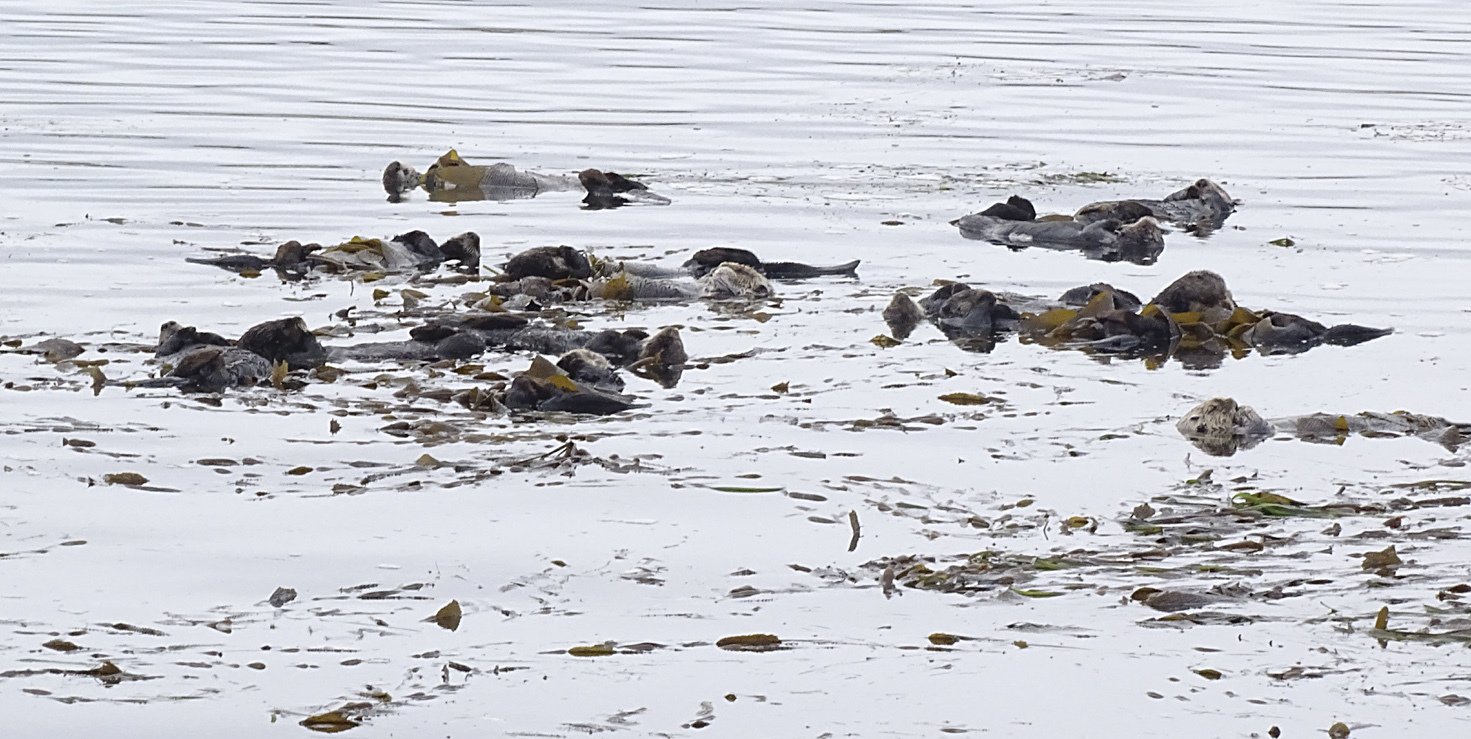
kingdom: Animalia
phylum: Chordata
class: Mammalia
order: Carnivora
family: Mustelidae
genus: Enhydra
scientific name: Enhydra lutris
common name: Sea otter
